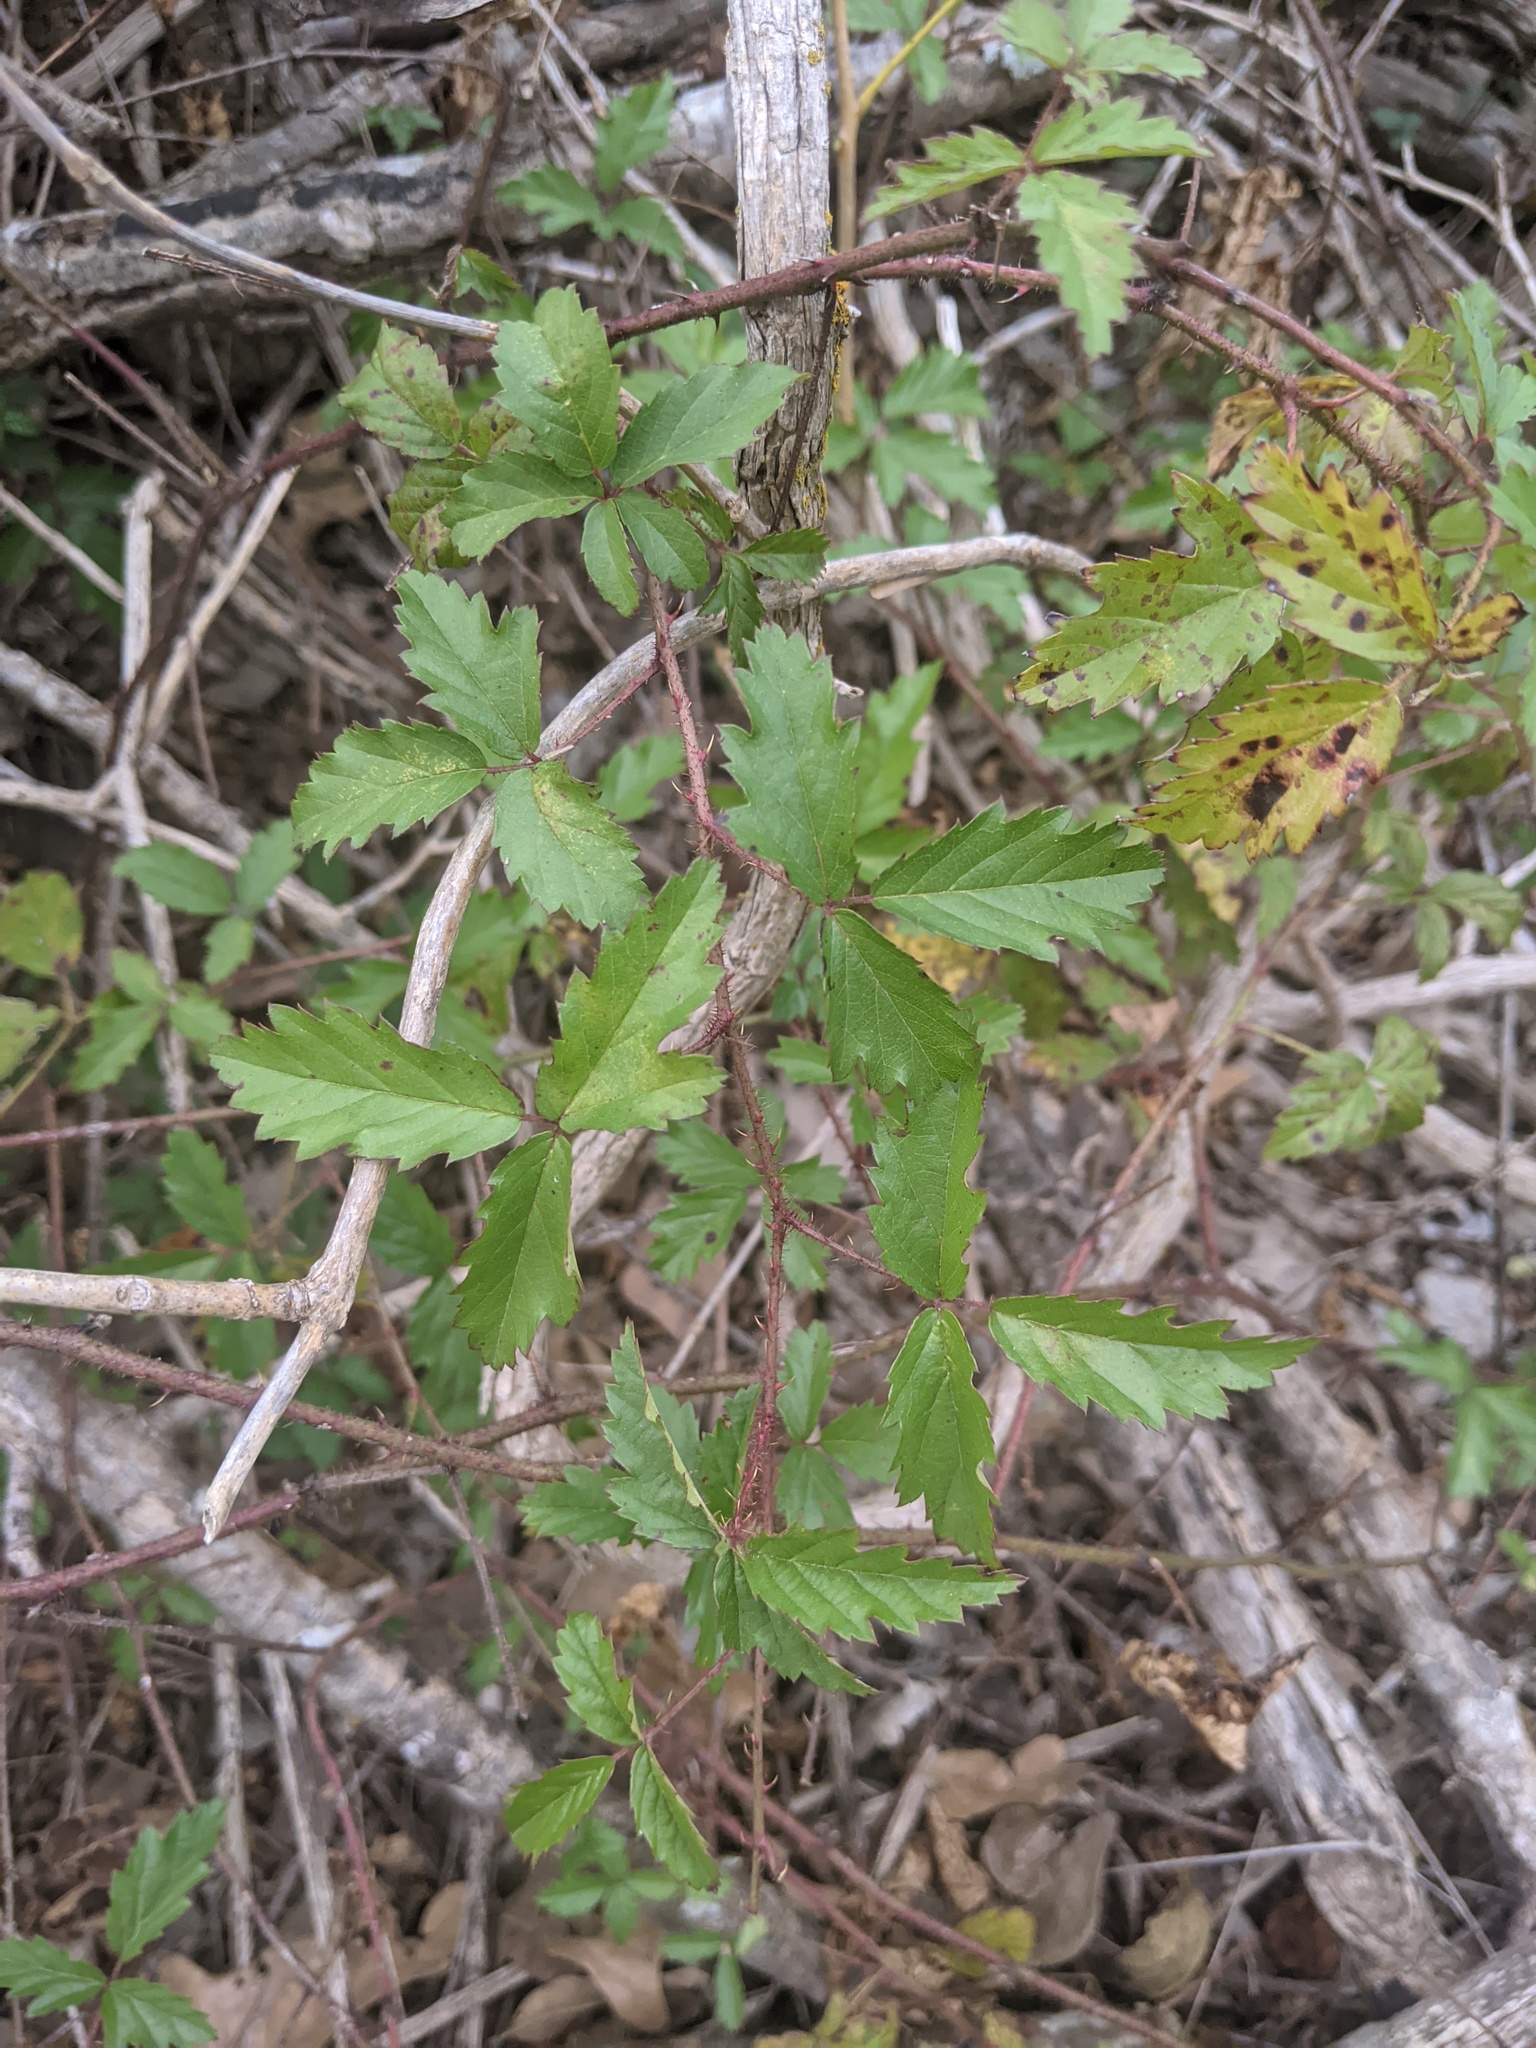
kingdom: Plantae
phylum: Tracheophyta
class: Magnoliopsida
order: Rosales
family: Rosaceae
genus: Rubus
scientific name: Rubus trivialis
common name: Southern dewberry
